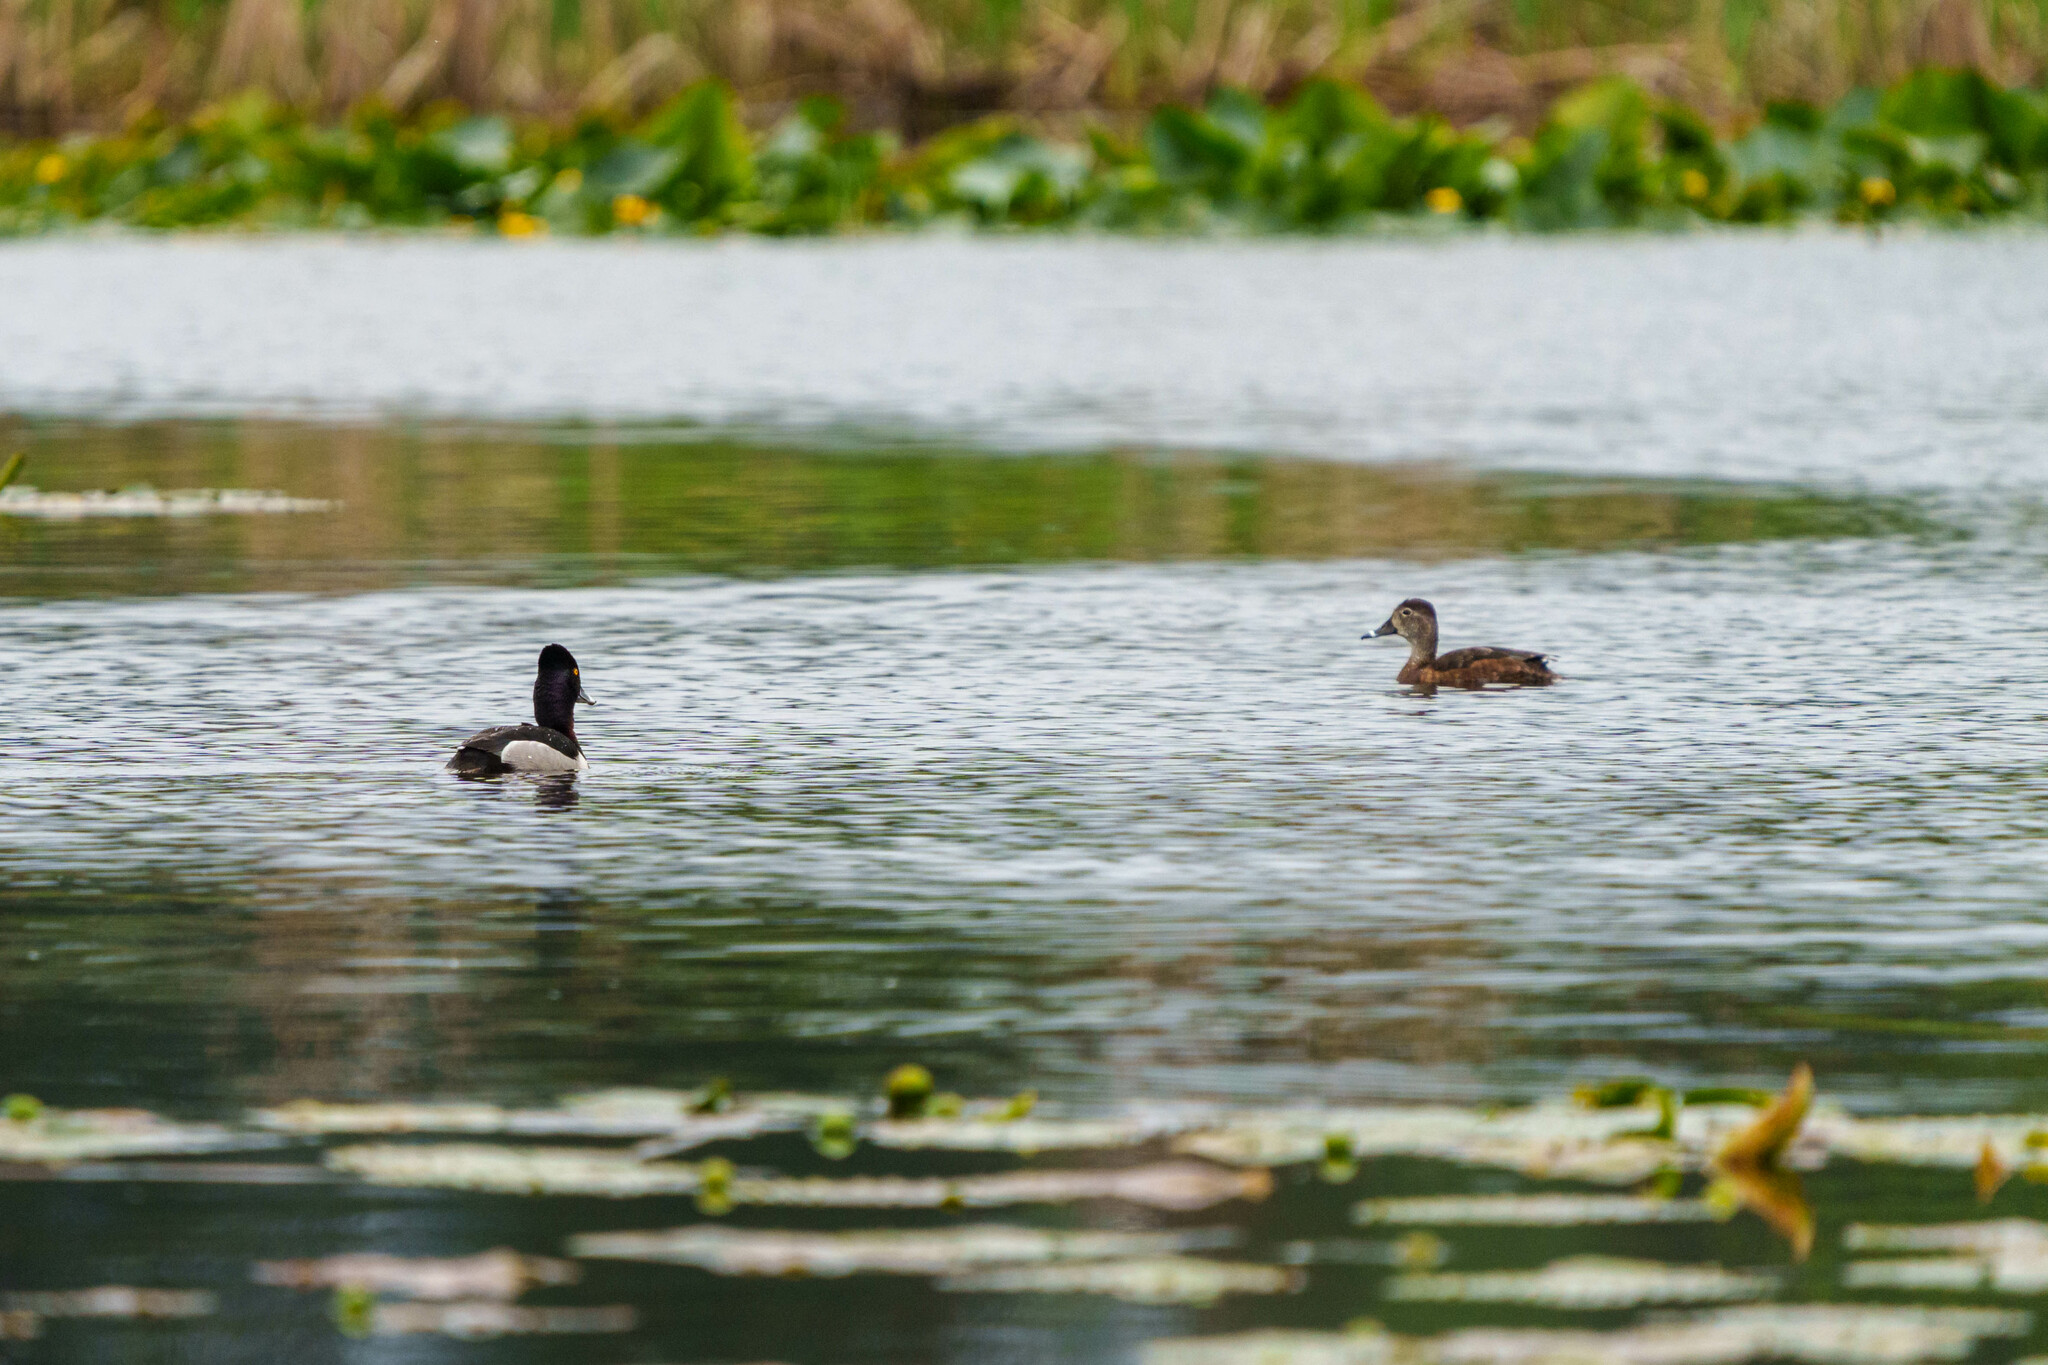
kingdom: Animalia
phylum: Chordata
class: Aves
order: Anseriformes
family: Anatidae
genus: Aythya
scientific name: Aythya collaris
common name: Ring-necked duck
